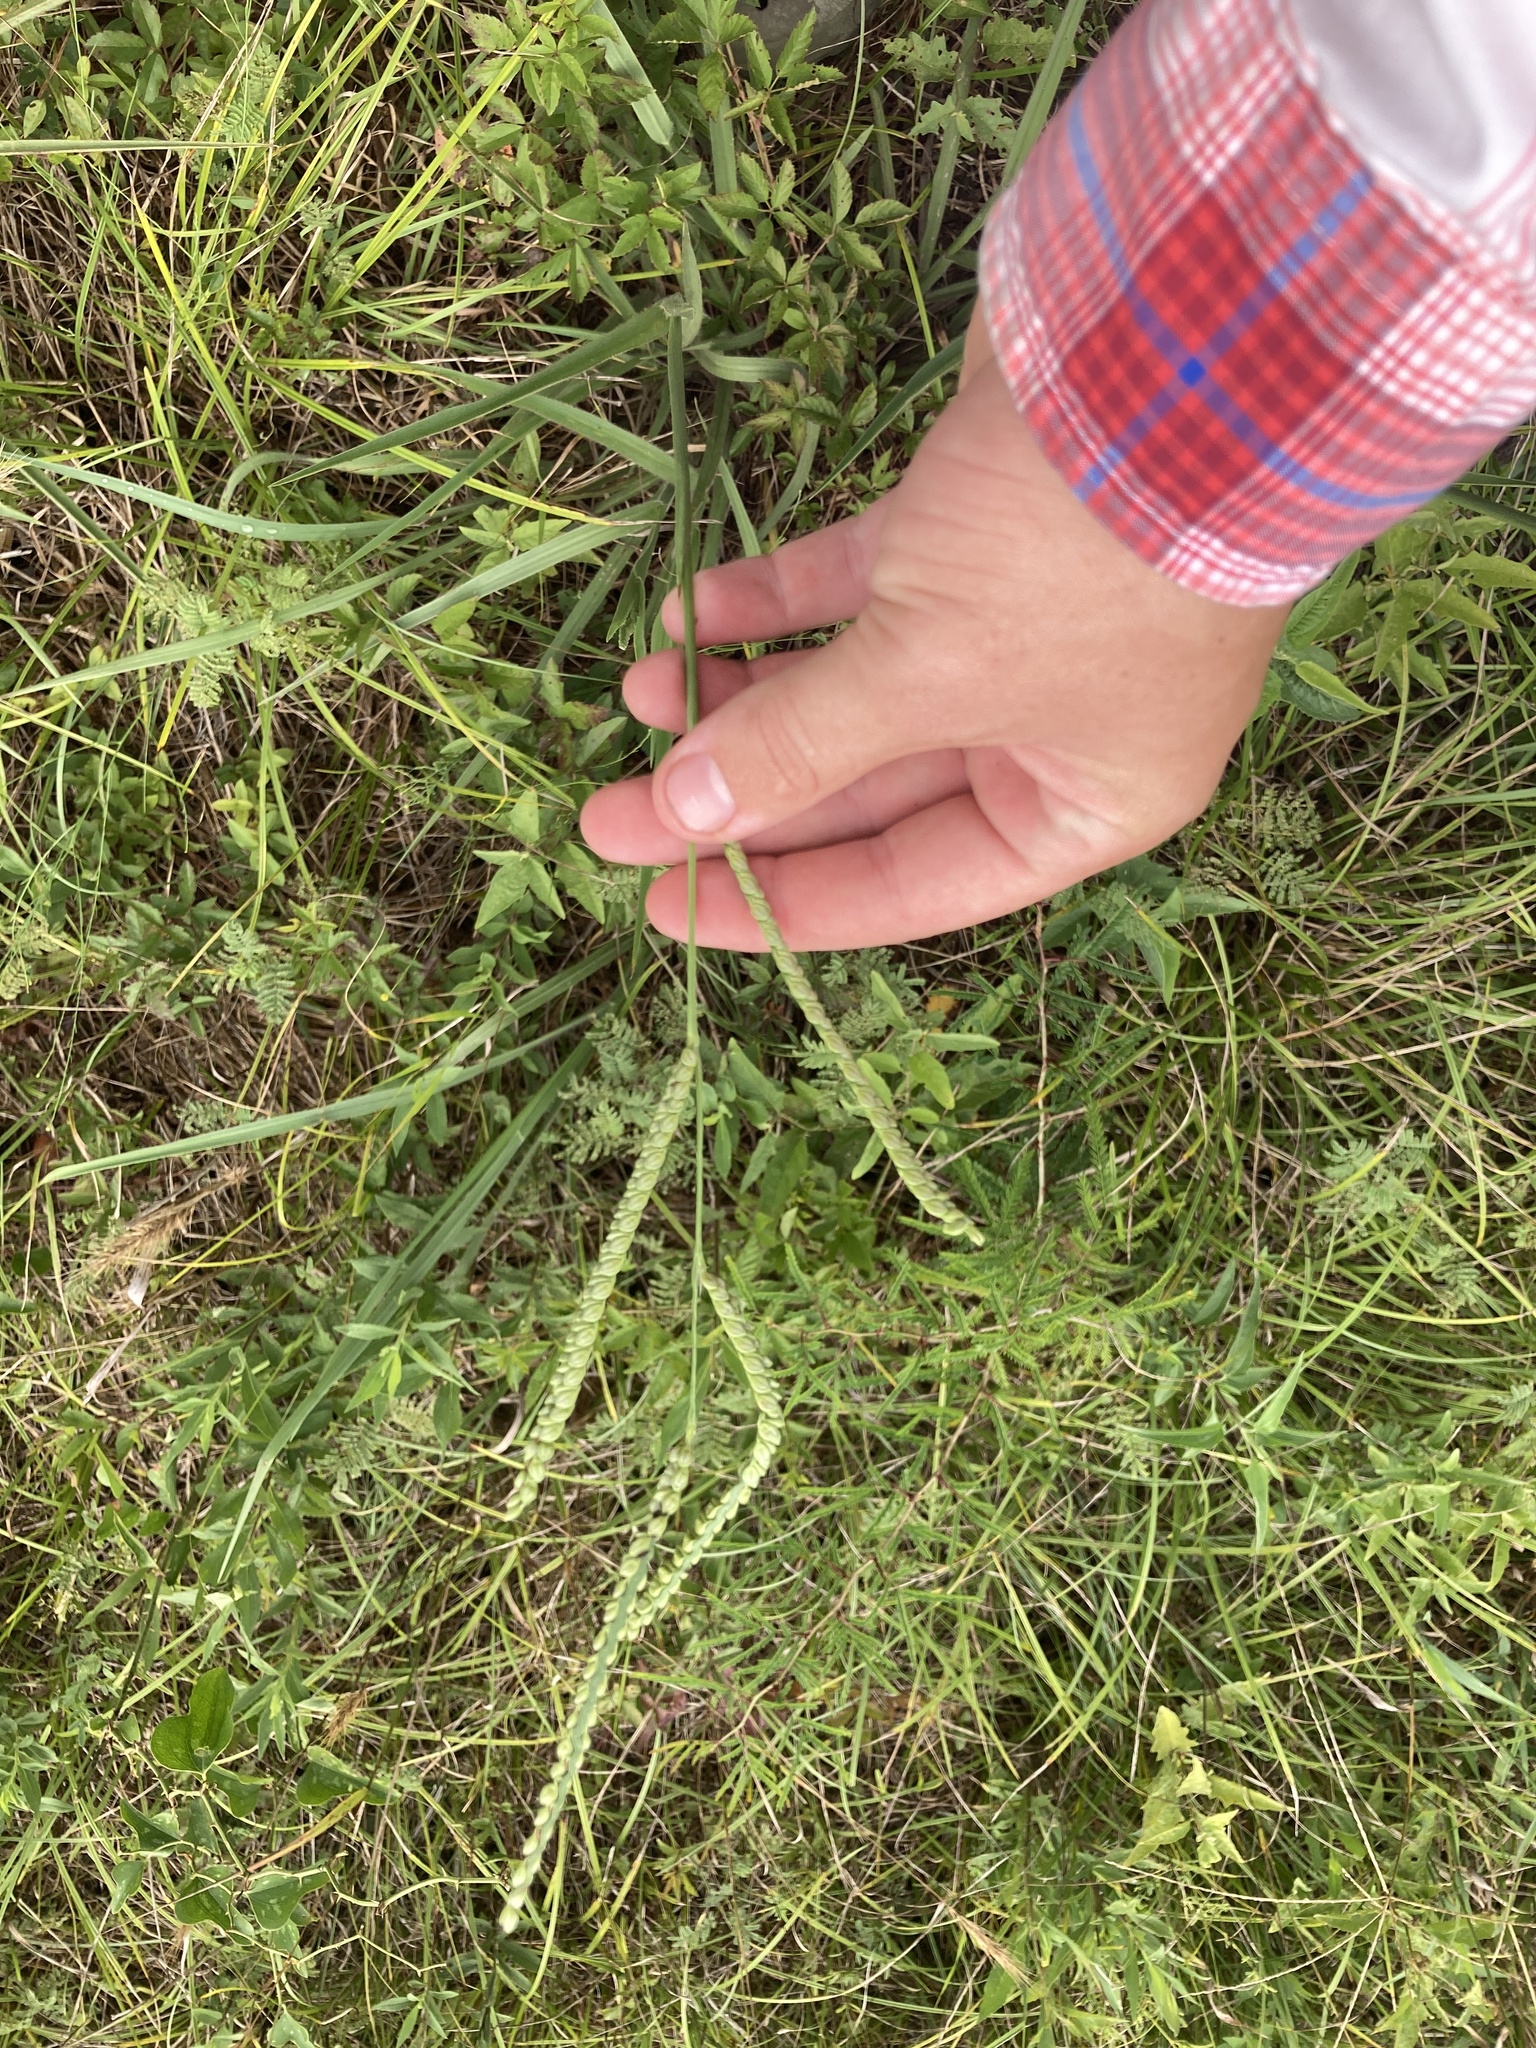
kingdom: Plantae
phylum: Tracheophyta
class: Liliopsida
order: Poales
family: Poaceae
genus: Paspalum
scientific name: Paspalum floridanum
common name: Florida paspalum
